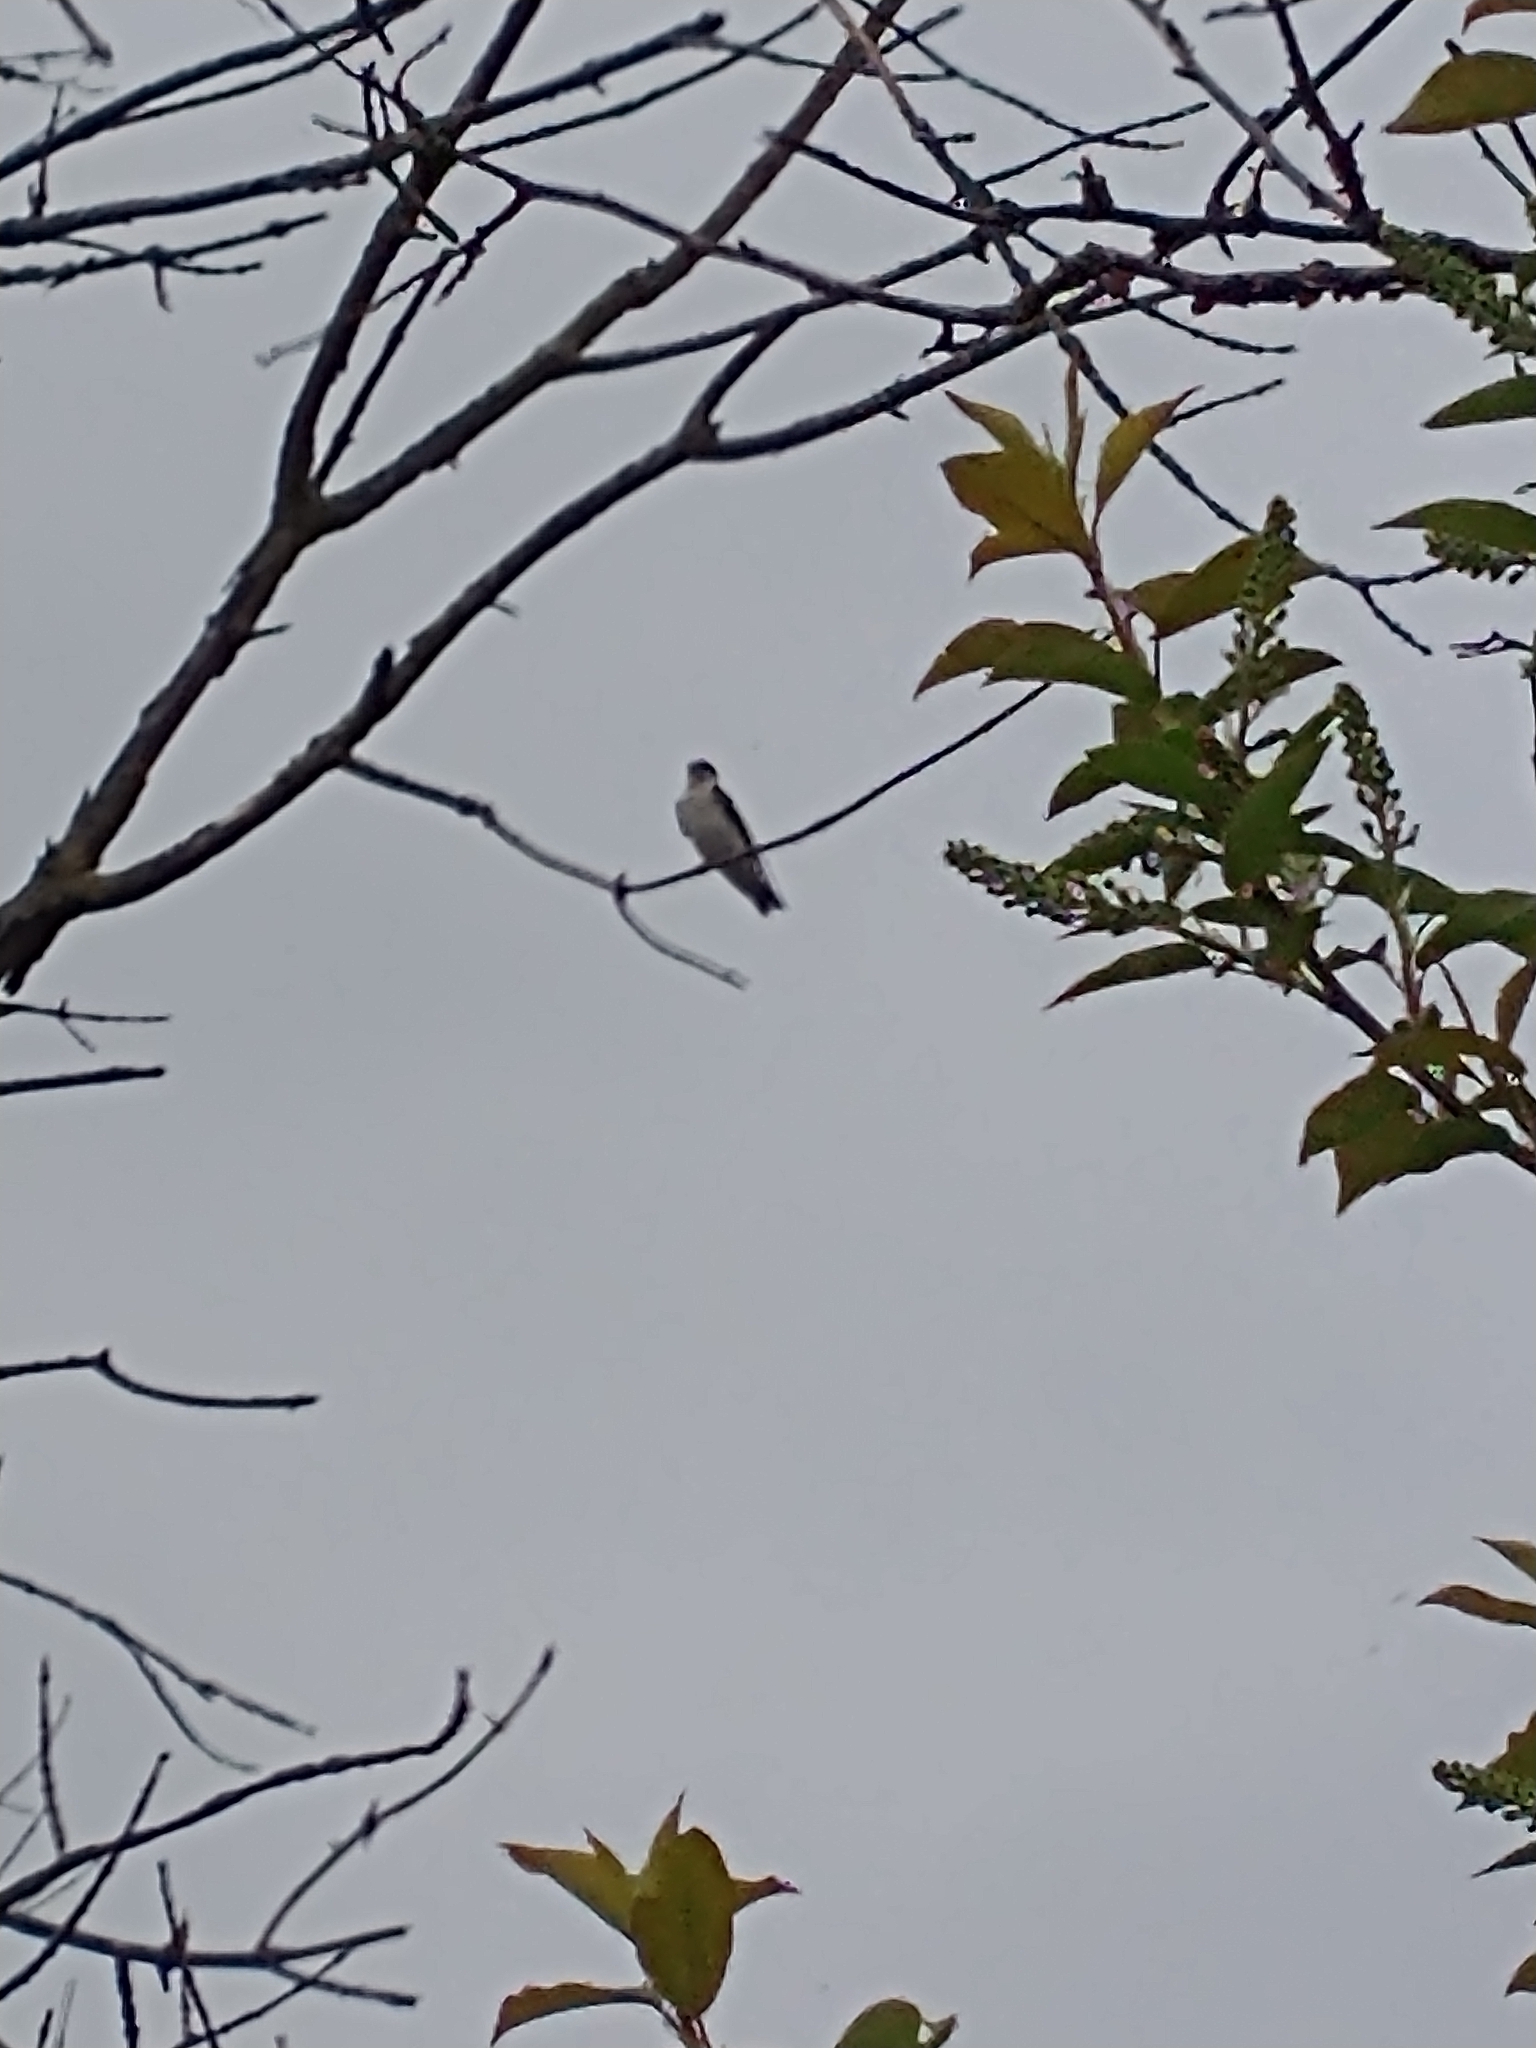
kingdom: Animalia
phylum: Chordata
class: Aves
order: Passeriformes
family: Hirundinidae
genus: Tachycineta
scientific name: Tachycineta bicolor
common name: Tree swallow
